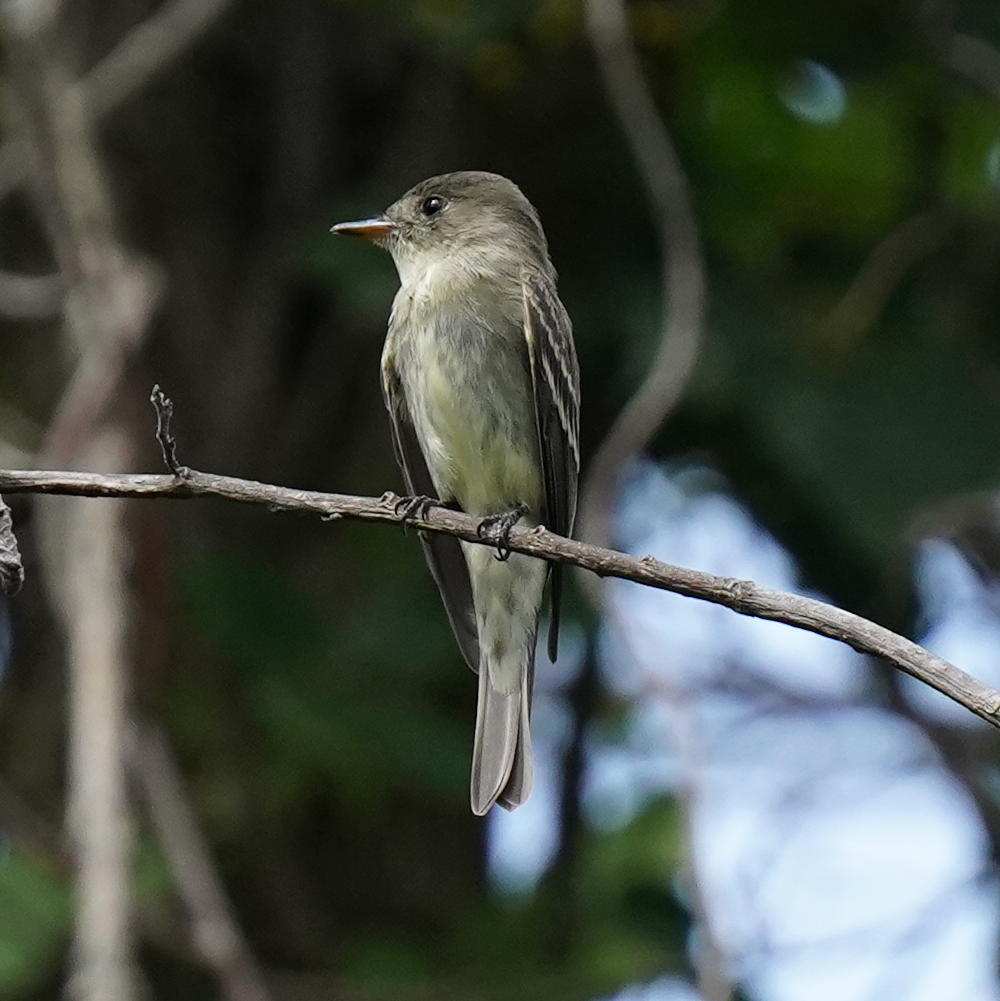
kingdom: Animalia
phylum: Chordata
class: Aves
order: Passeriformes
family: Tyrannidae
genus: Contopus
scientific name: Contopus virens
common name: Eastern wood-pewee
